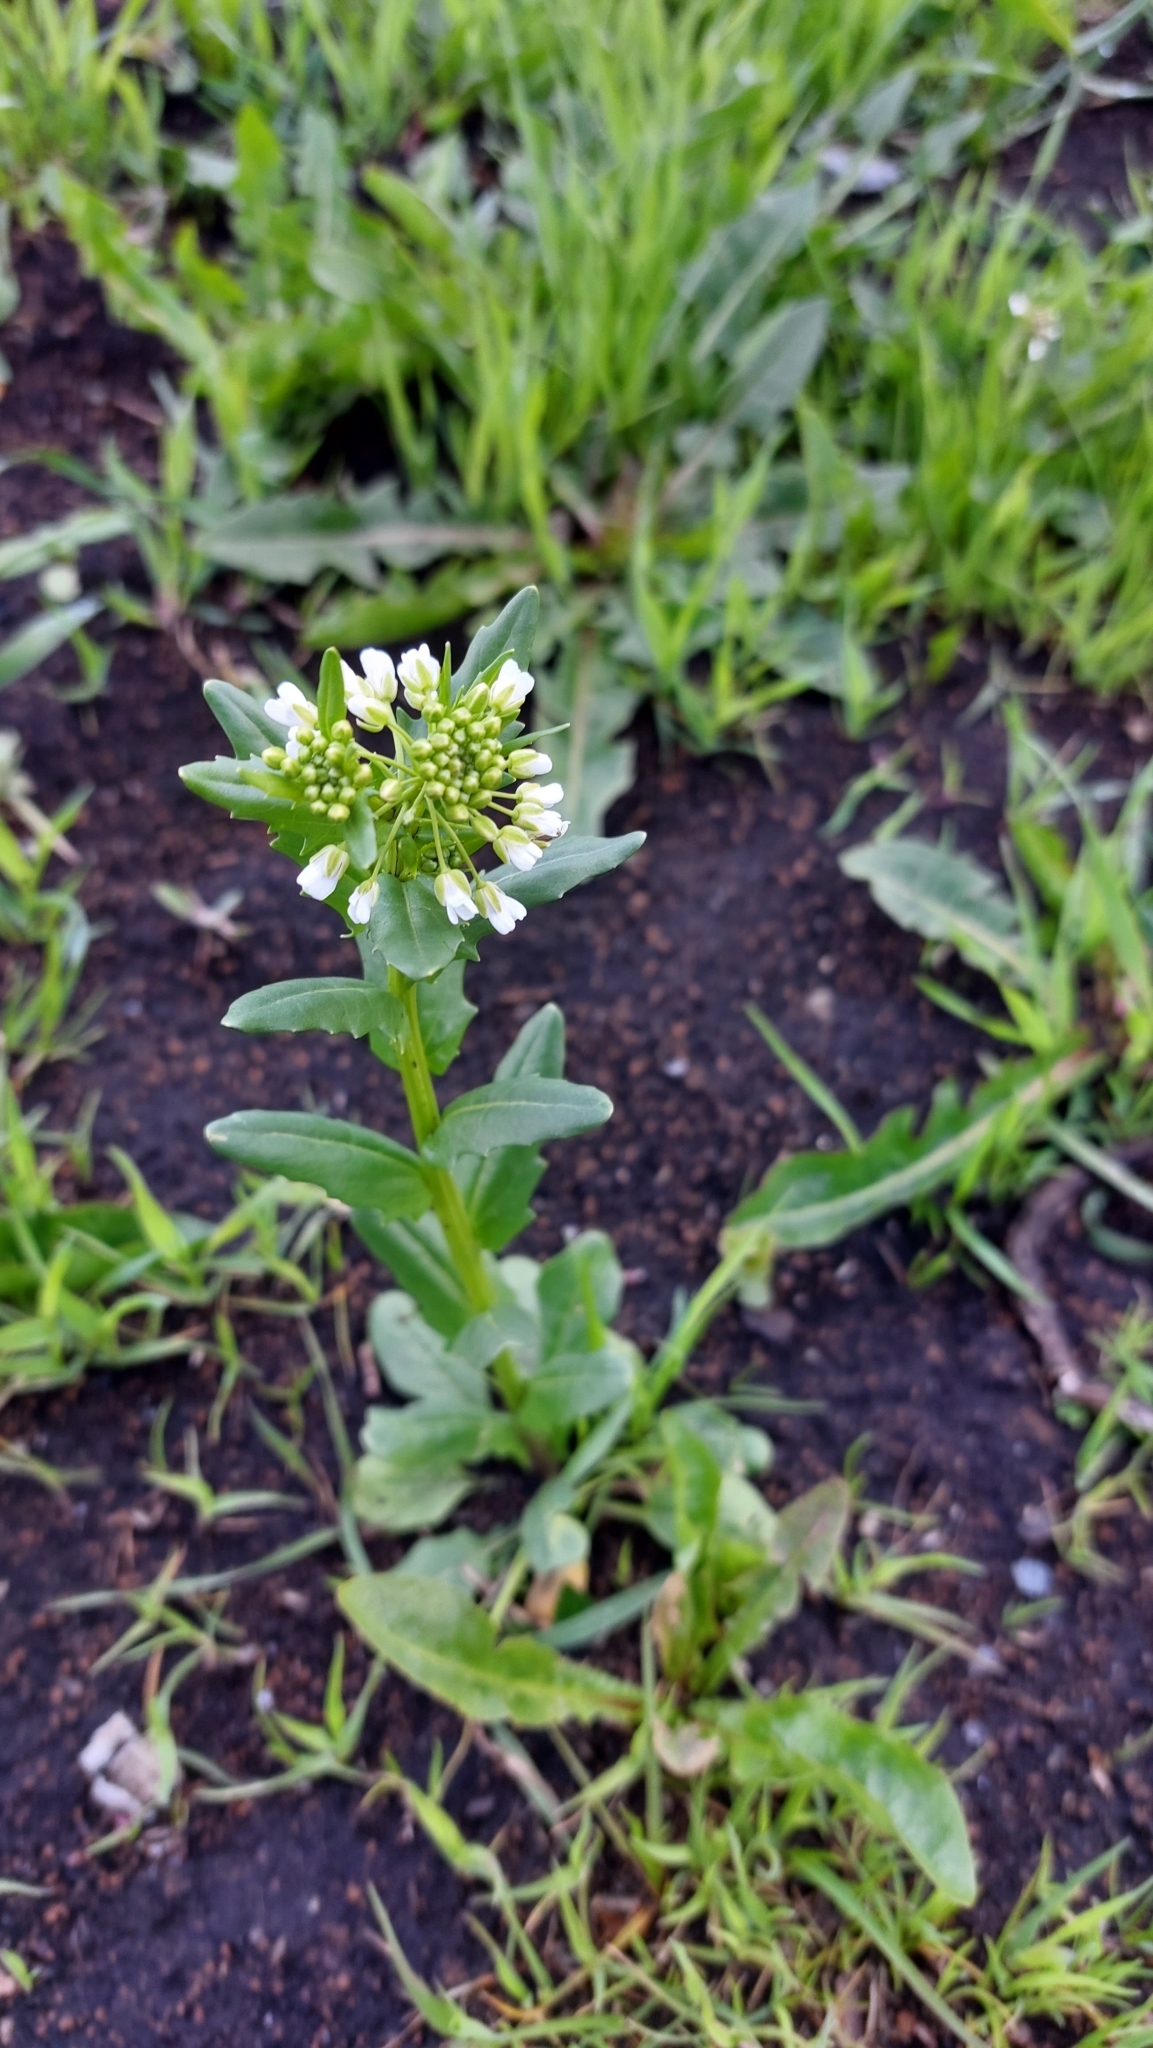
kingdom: Plantae
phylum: Tracheophyta
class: Magnoliopsida
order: Brassicales
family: Brassicaceae
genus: Thlaspi
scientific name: Thlaspi arvense
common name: Field pennycress
